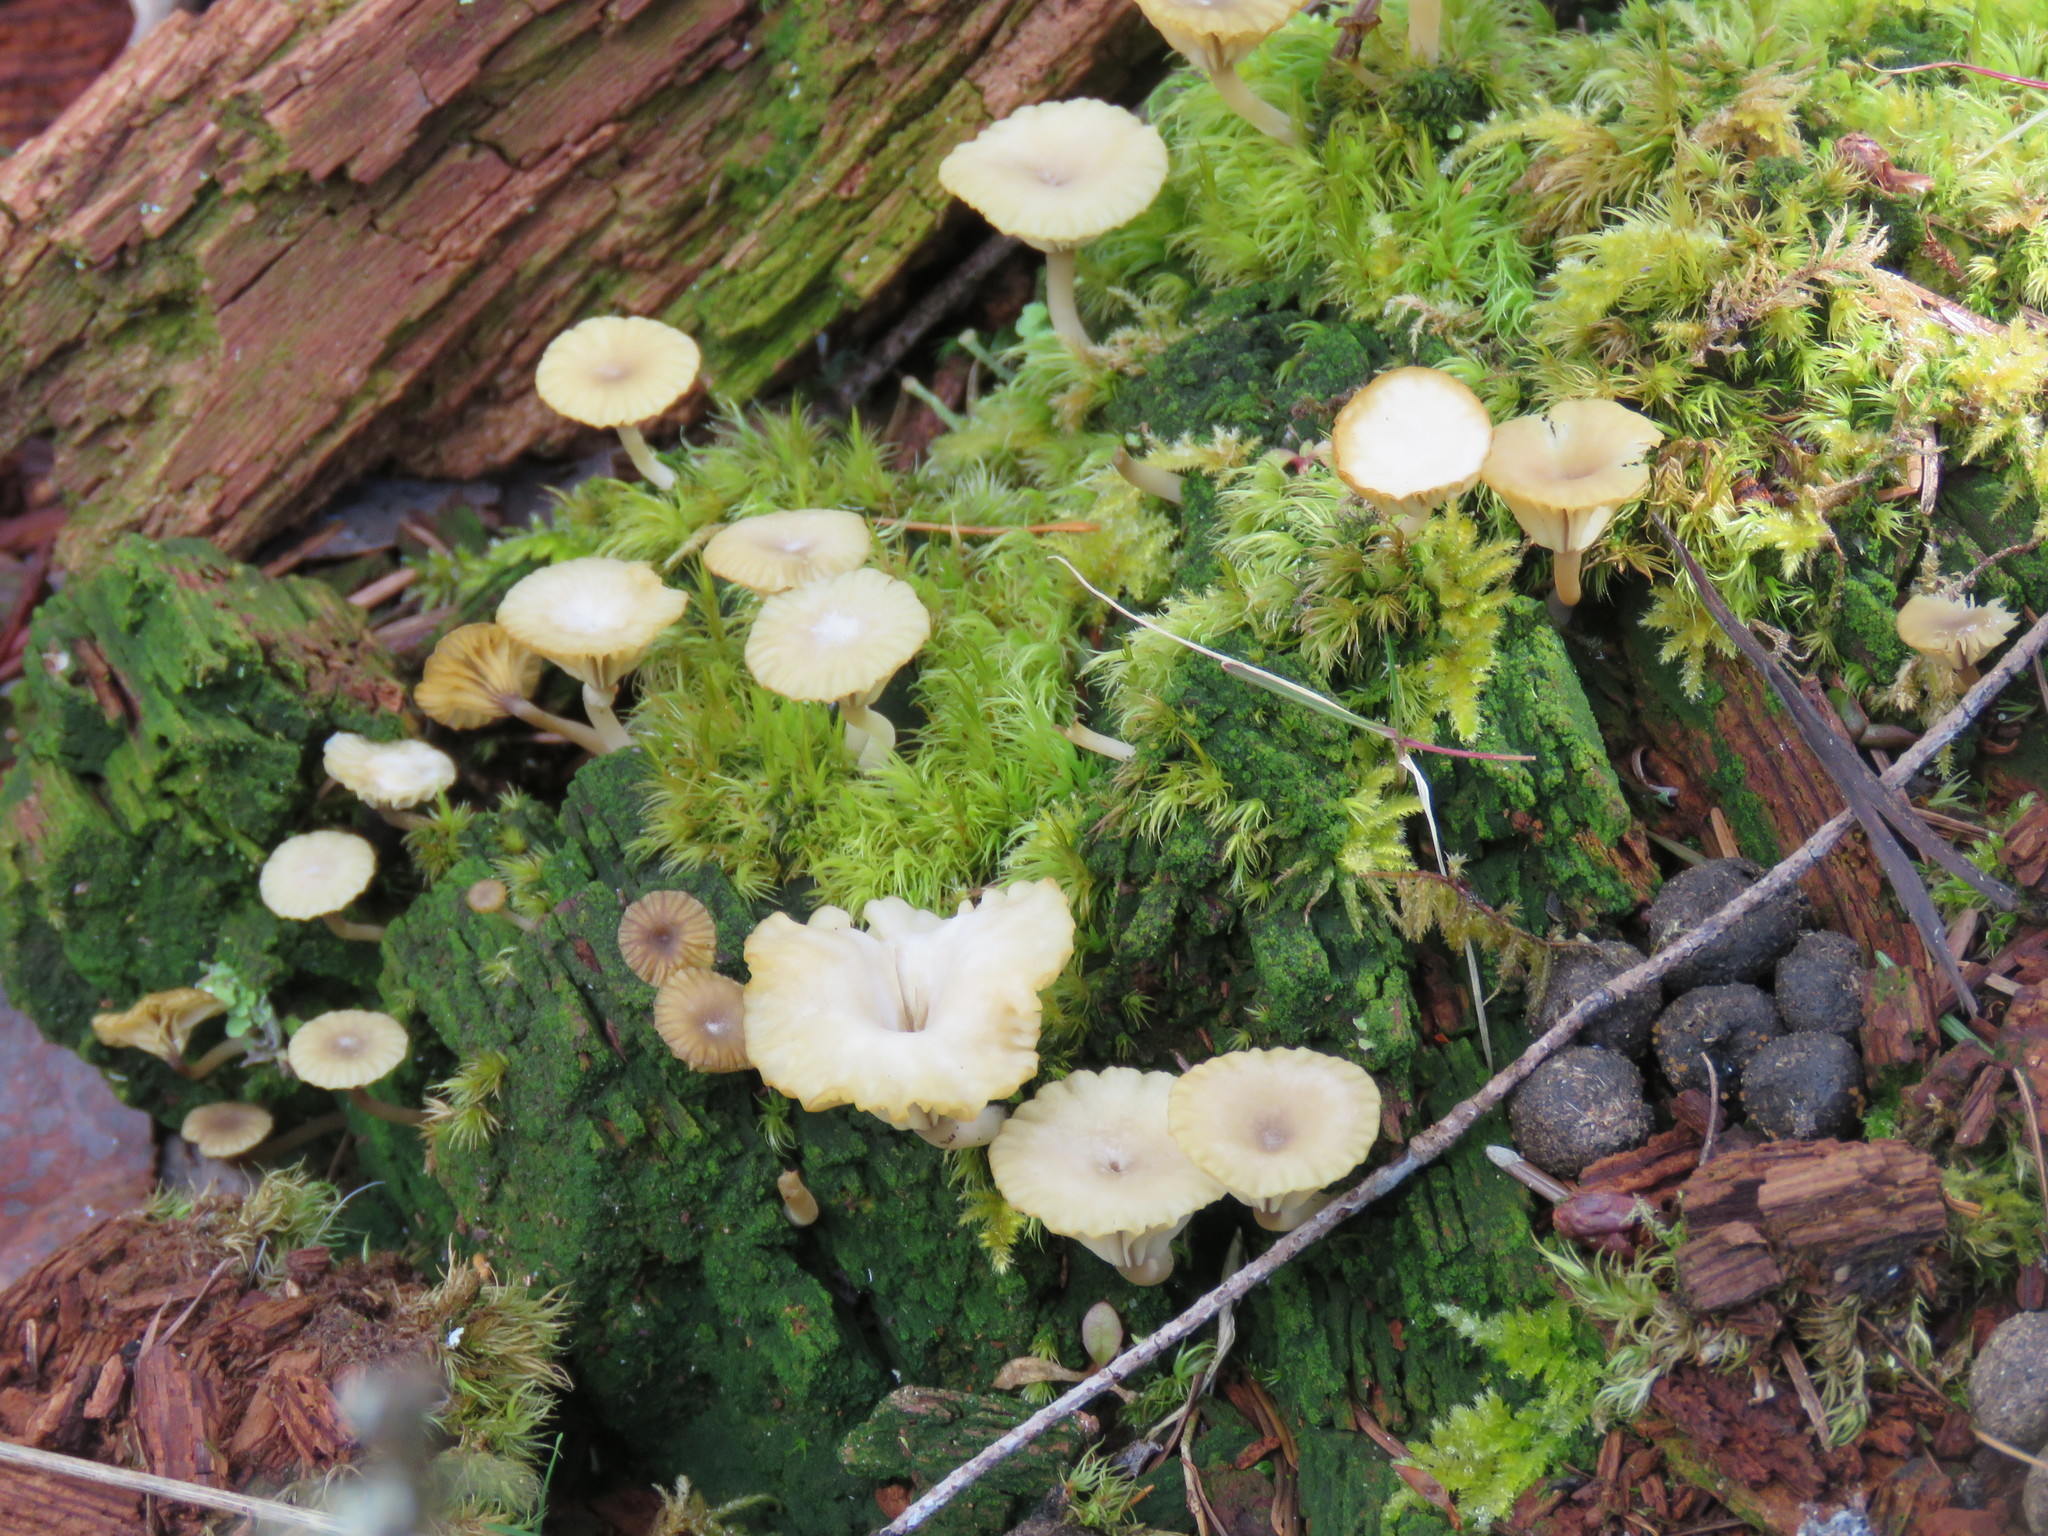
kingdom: Fungi
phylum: Basidiomycota
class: Agaricomycetes
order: Agaricales
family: Hygrophoraceae
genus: Lichenomphalia
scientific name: Lichenomphalia
